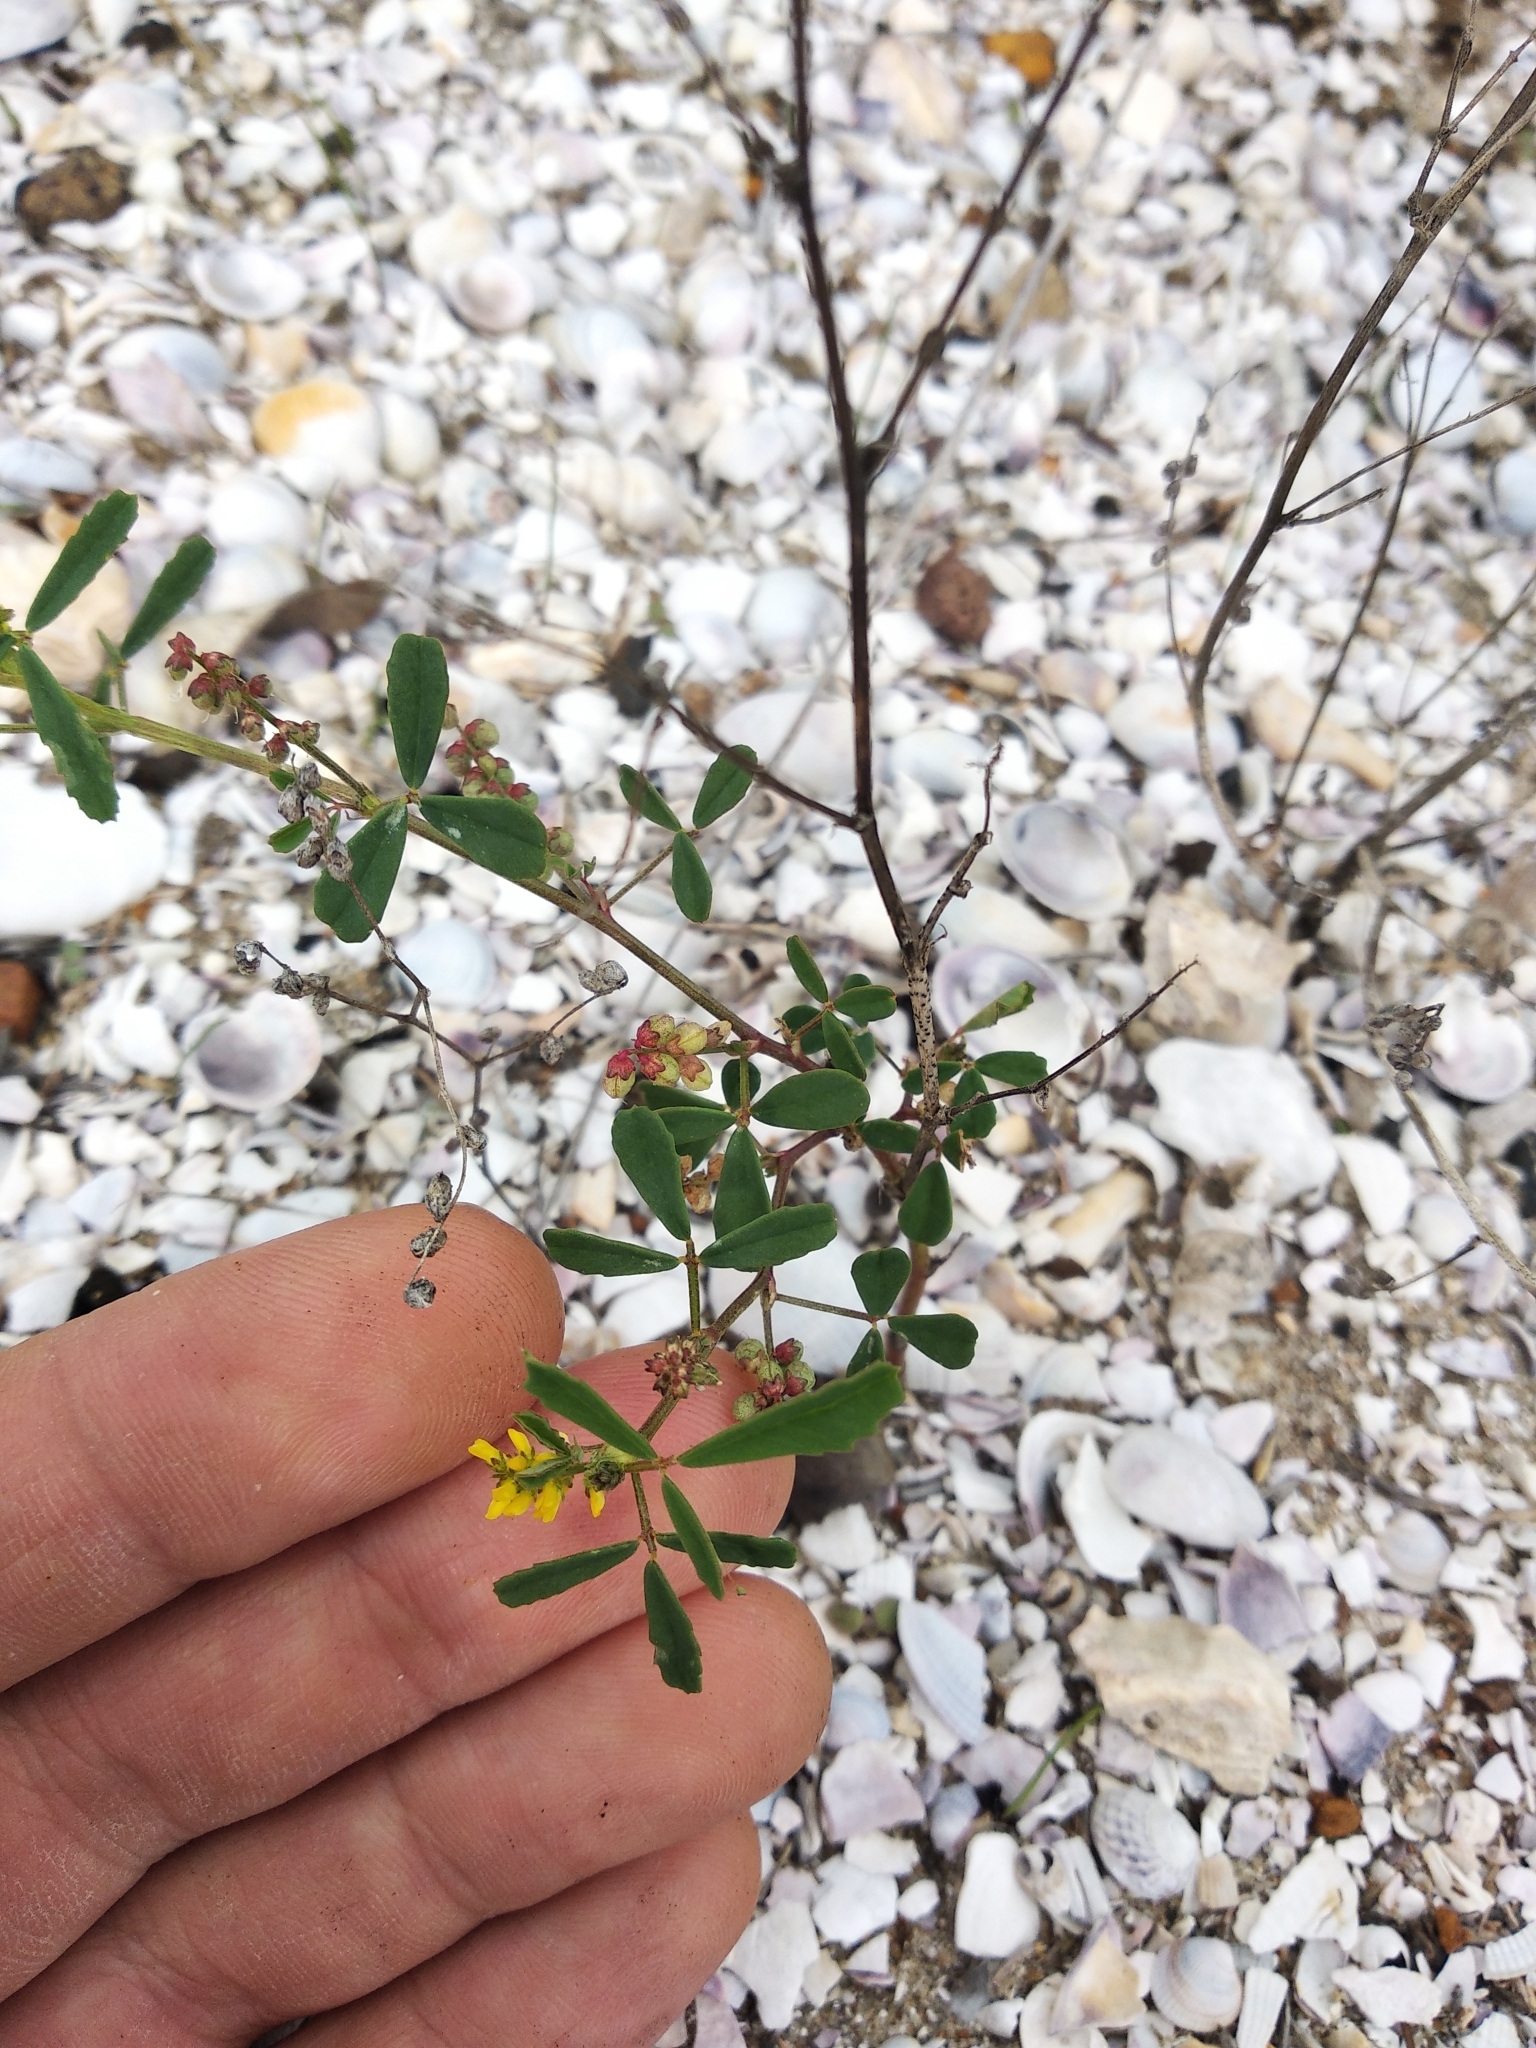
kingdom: Plantae
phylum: Tracheophyta
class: Magnoliopsida
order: Fabales
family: Fabaceae
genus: Melilotus
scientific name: Melilotus indicus
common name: Small melilot
